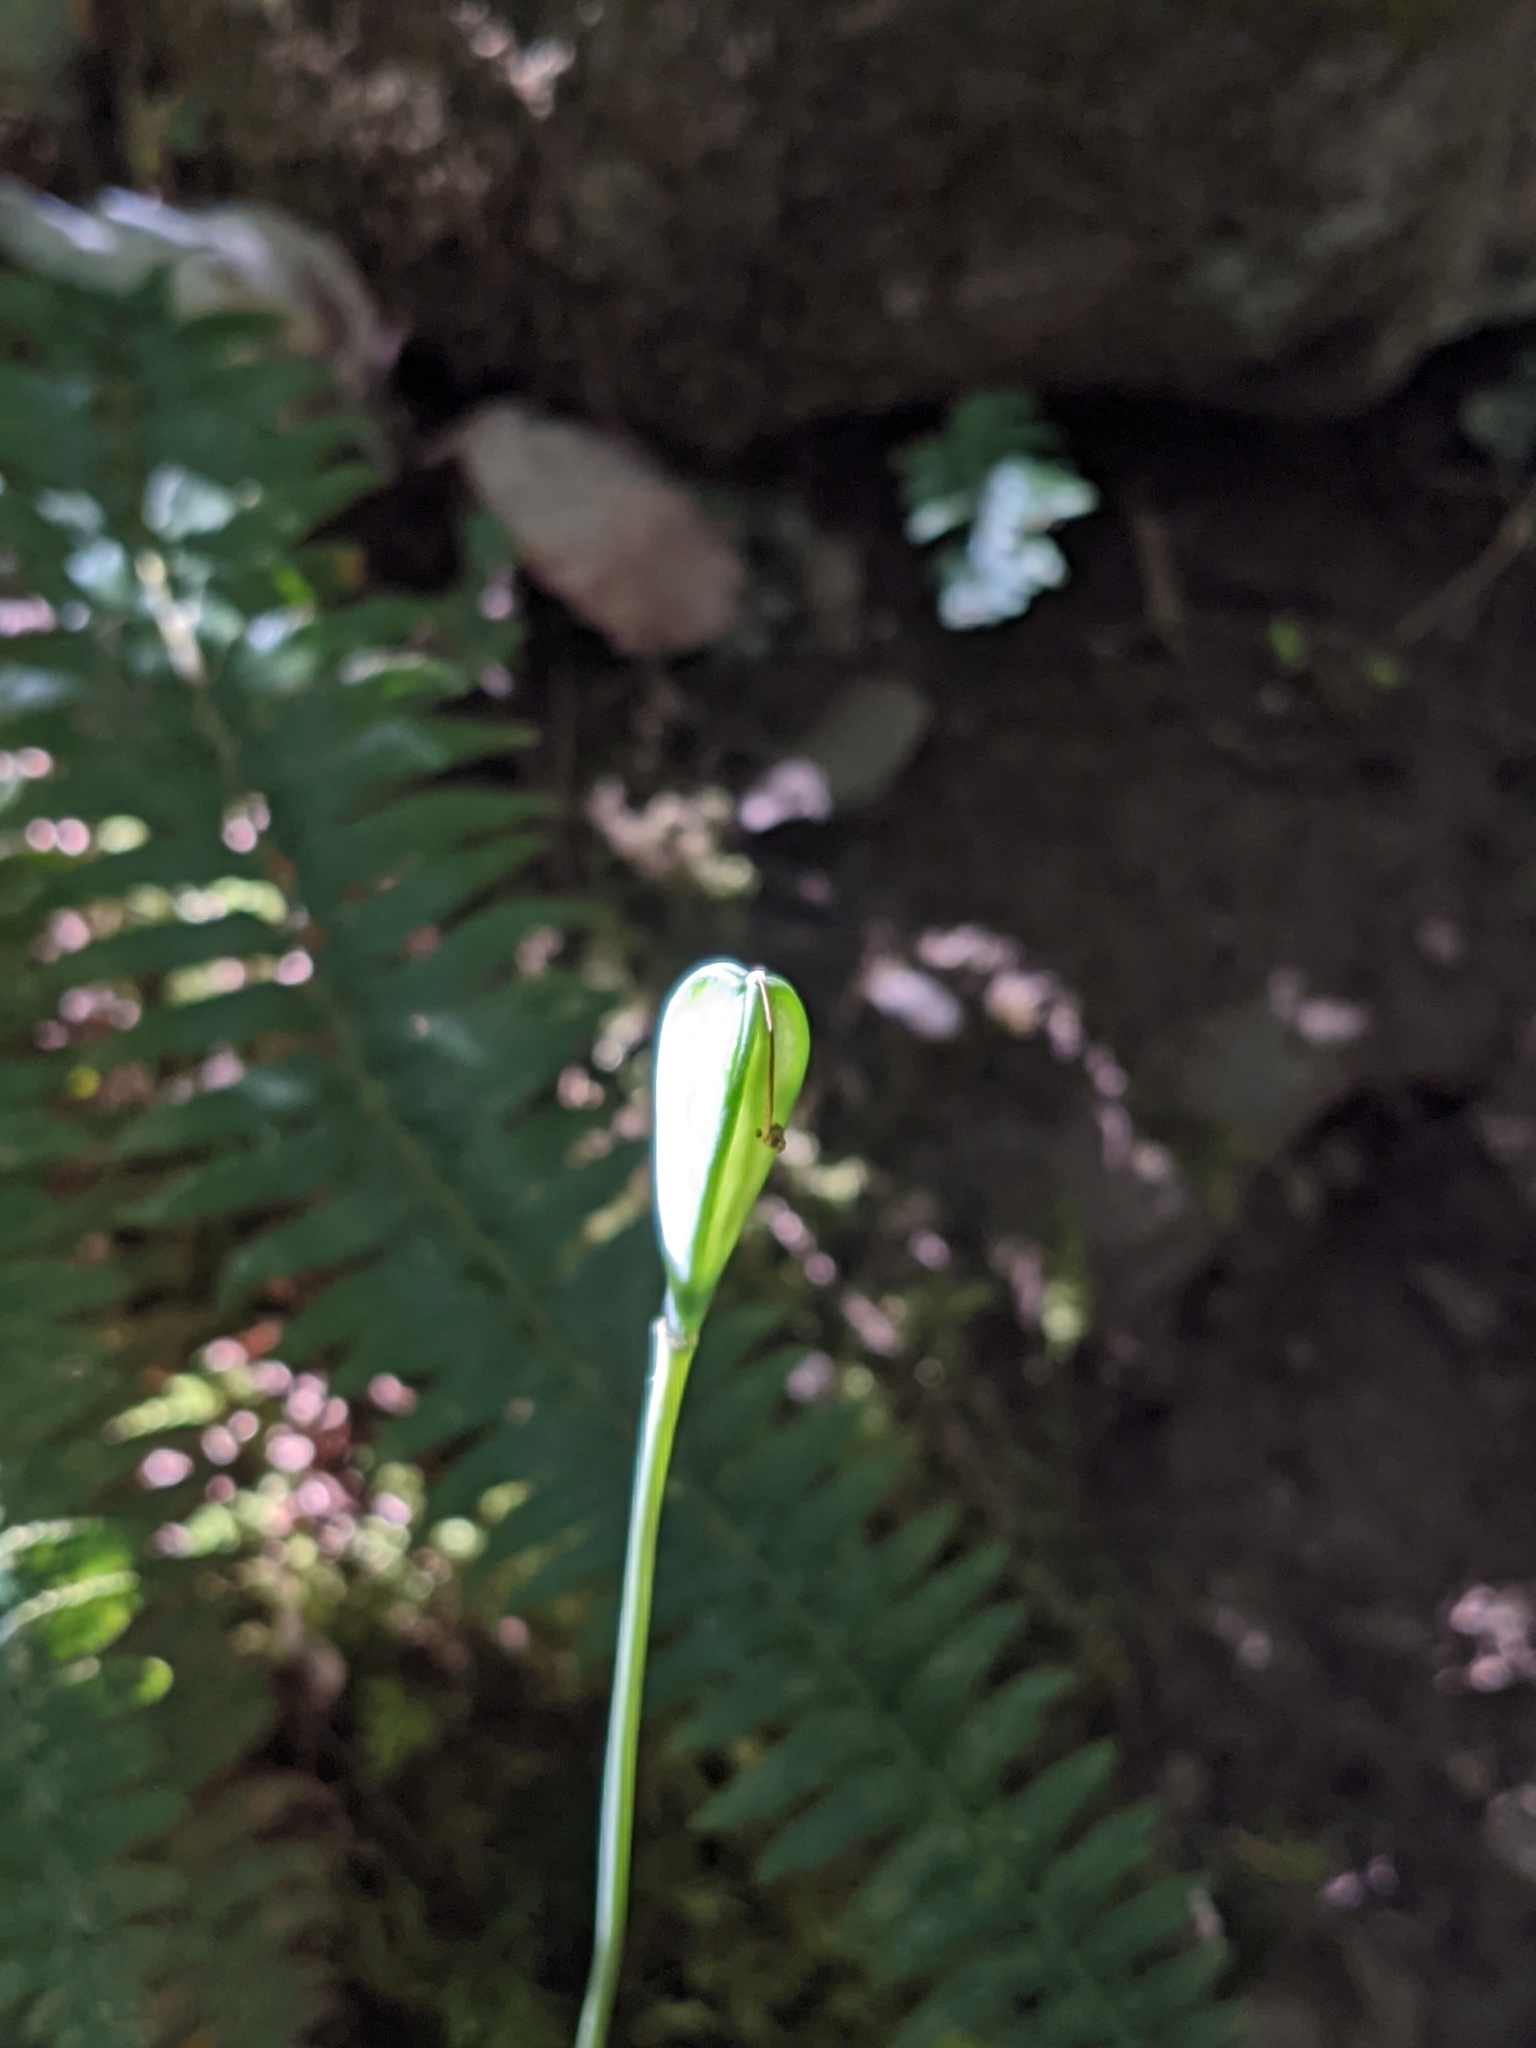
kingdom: Plantae
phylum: Tracheophyta
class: Liliopsida
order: Liliales
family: Liliaceae
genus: Erythronium
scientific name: Erythronium oregonum
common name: Giant adder's-tongue
